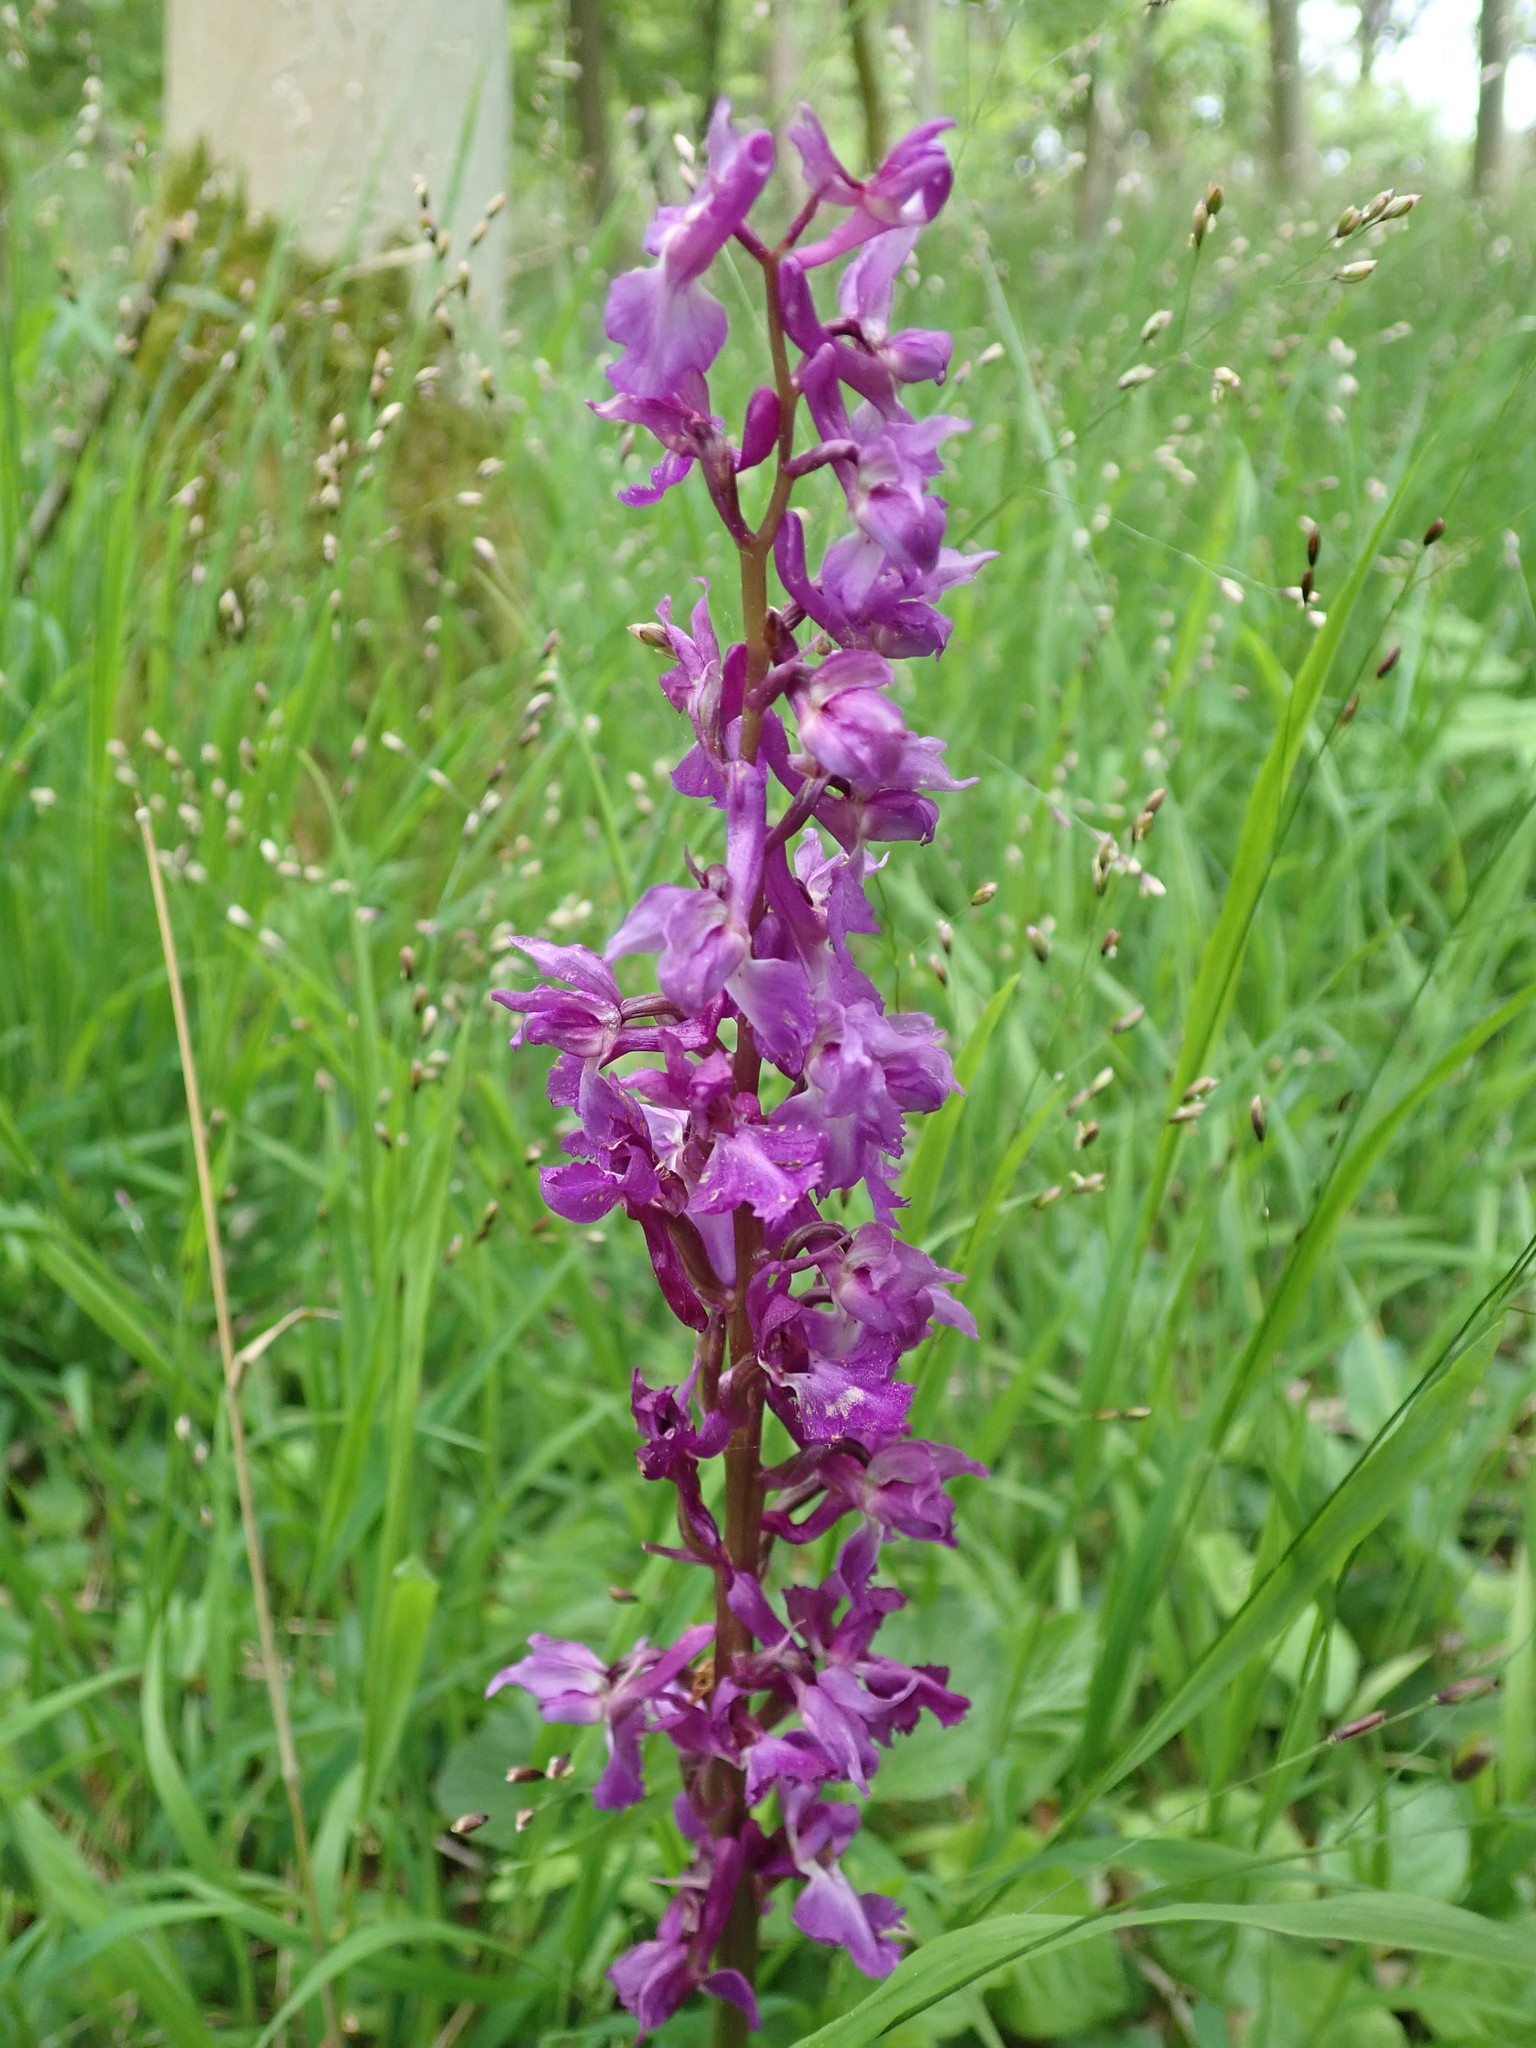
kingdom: Plantae
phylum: Tracheophyta
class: Liliopsida
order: Asparagales
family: Orchidaceae
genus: Orchis
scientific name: Orchis mascula
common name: Early-purple orchid
